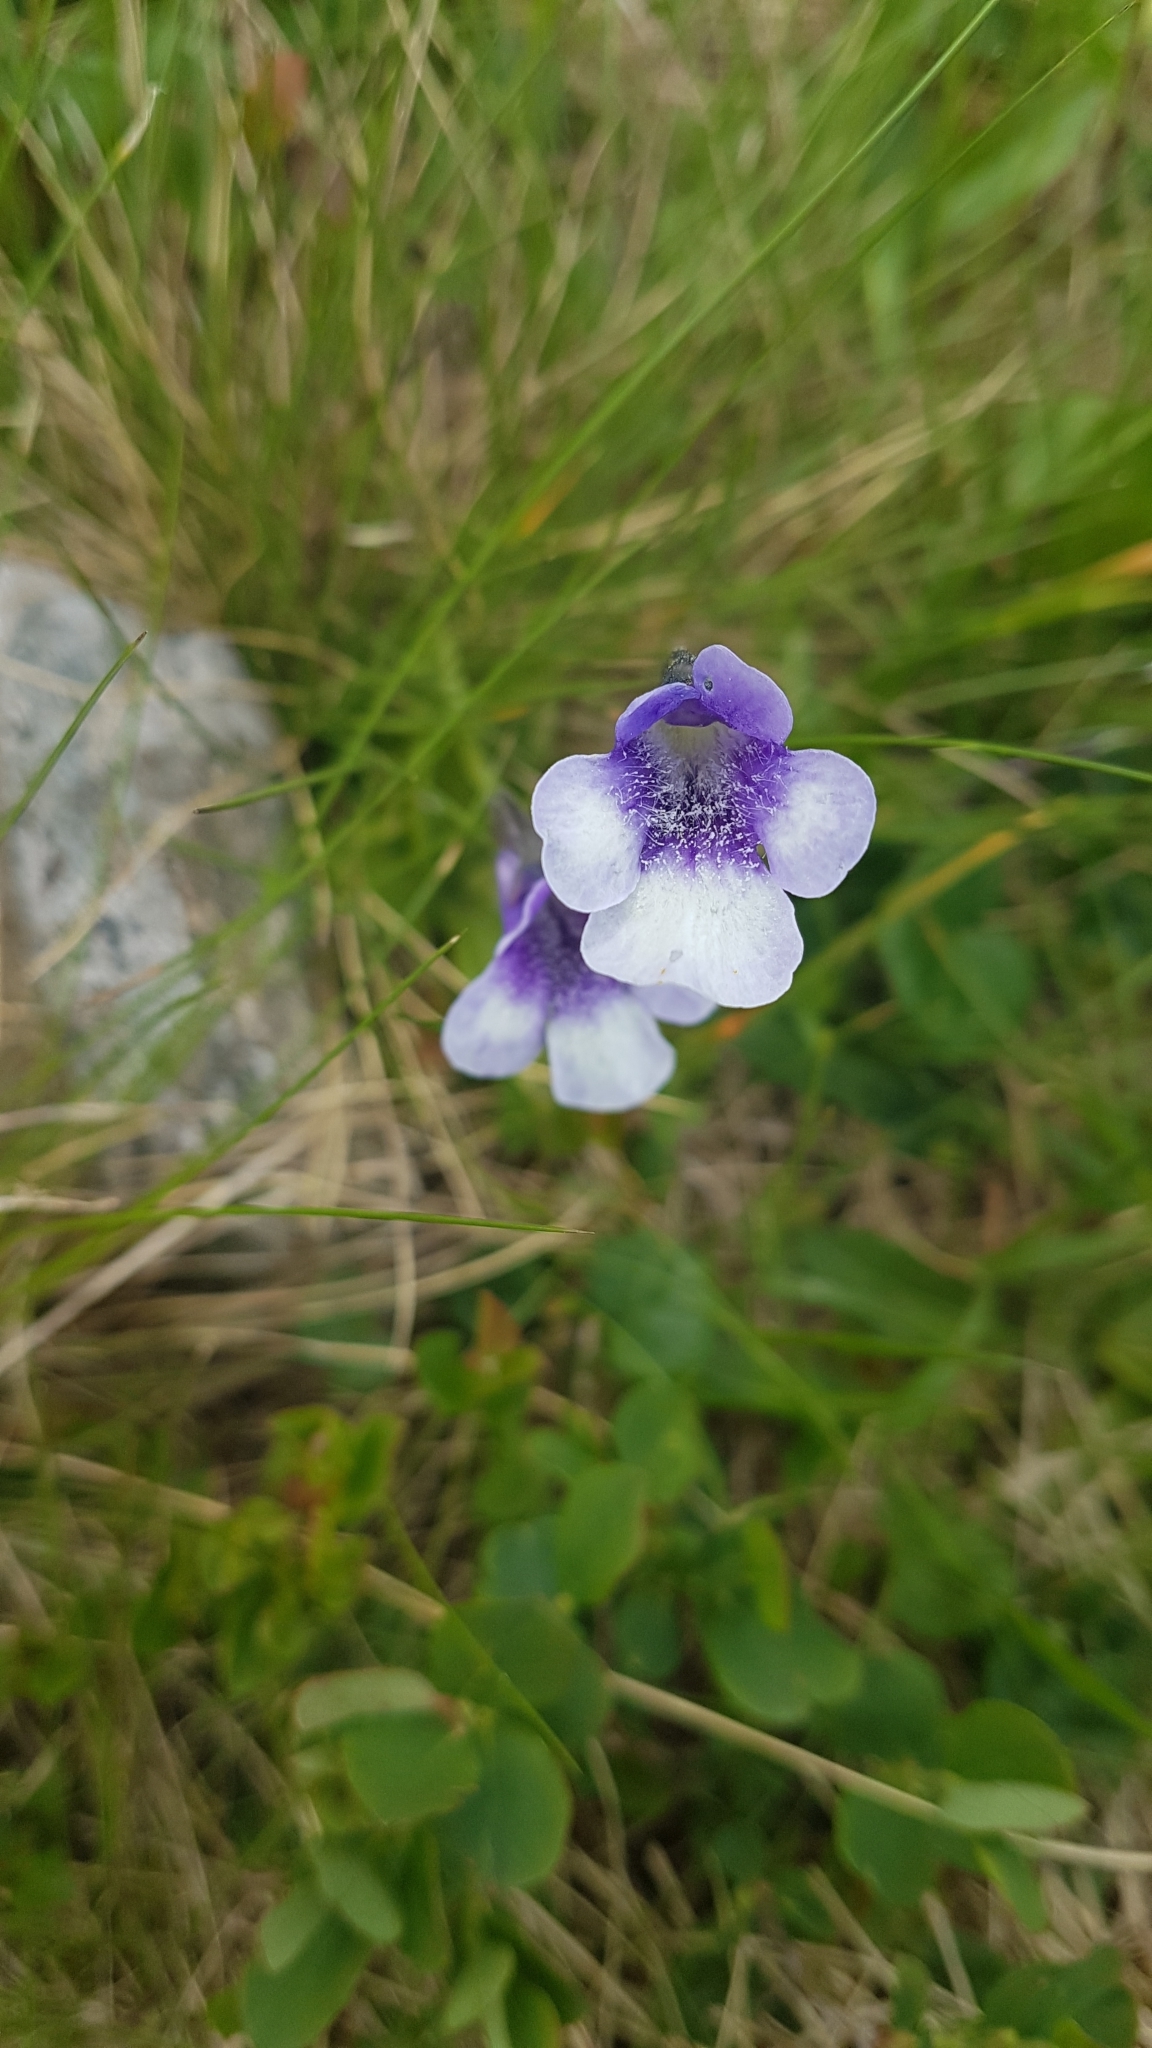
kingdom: Plantae
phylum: Tracheophyta
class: Magnoliopsida
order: Lamiales
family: Lentibulariaceae
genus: Pinguicula
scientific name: Pinguicula leptoceras
